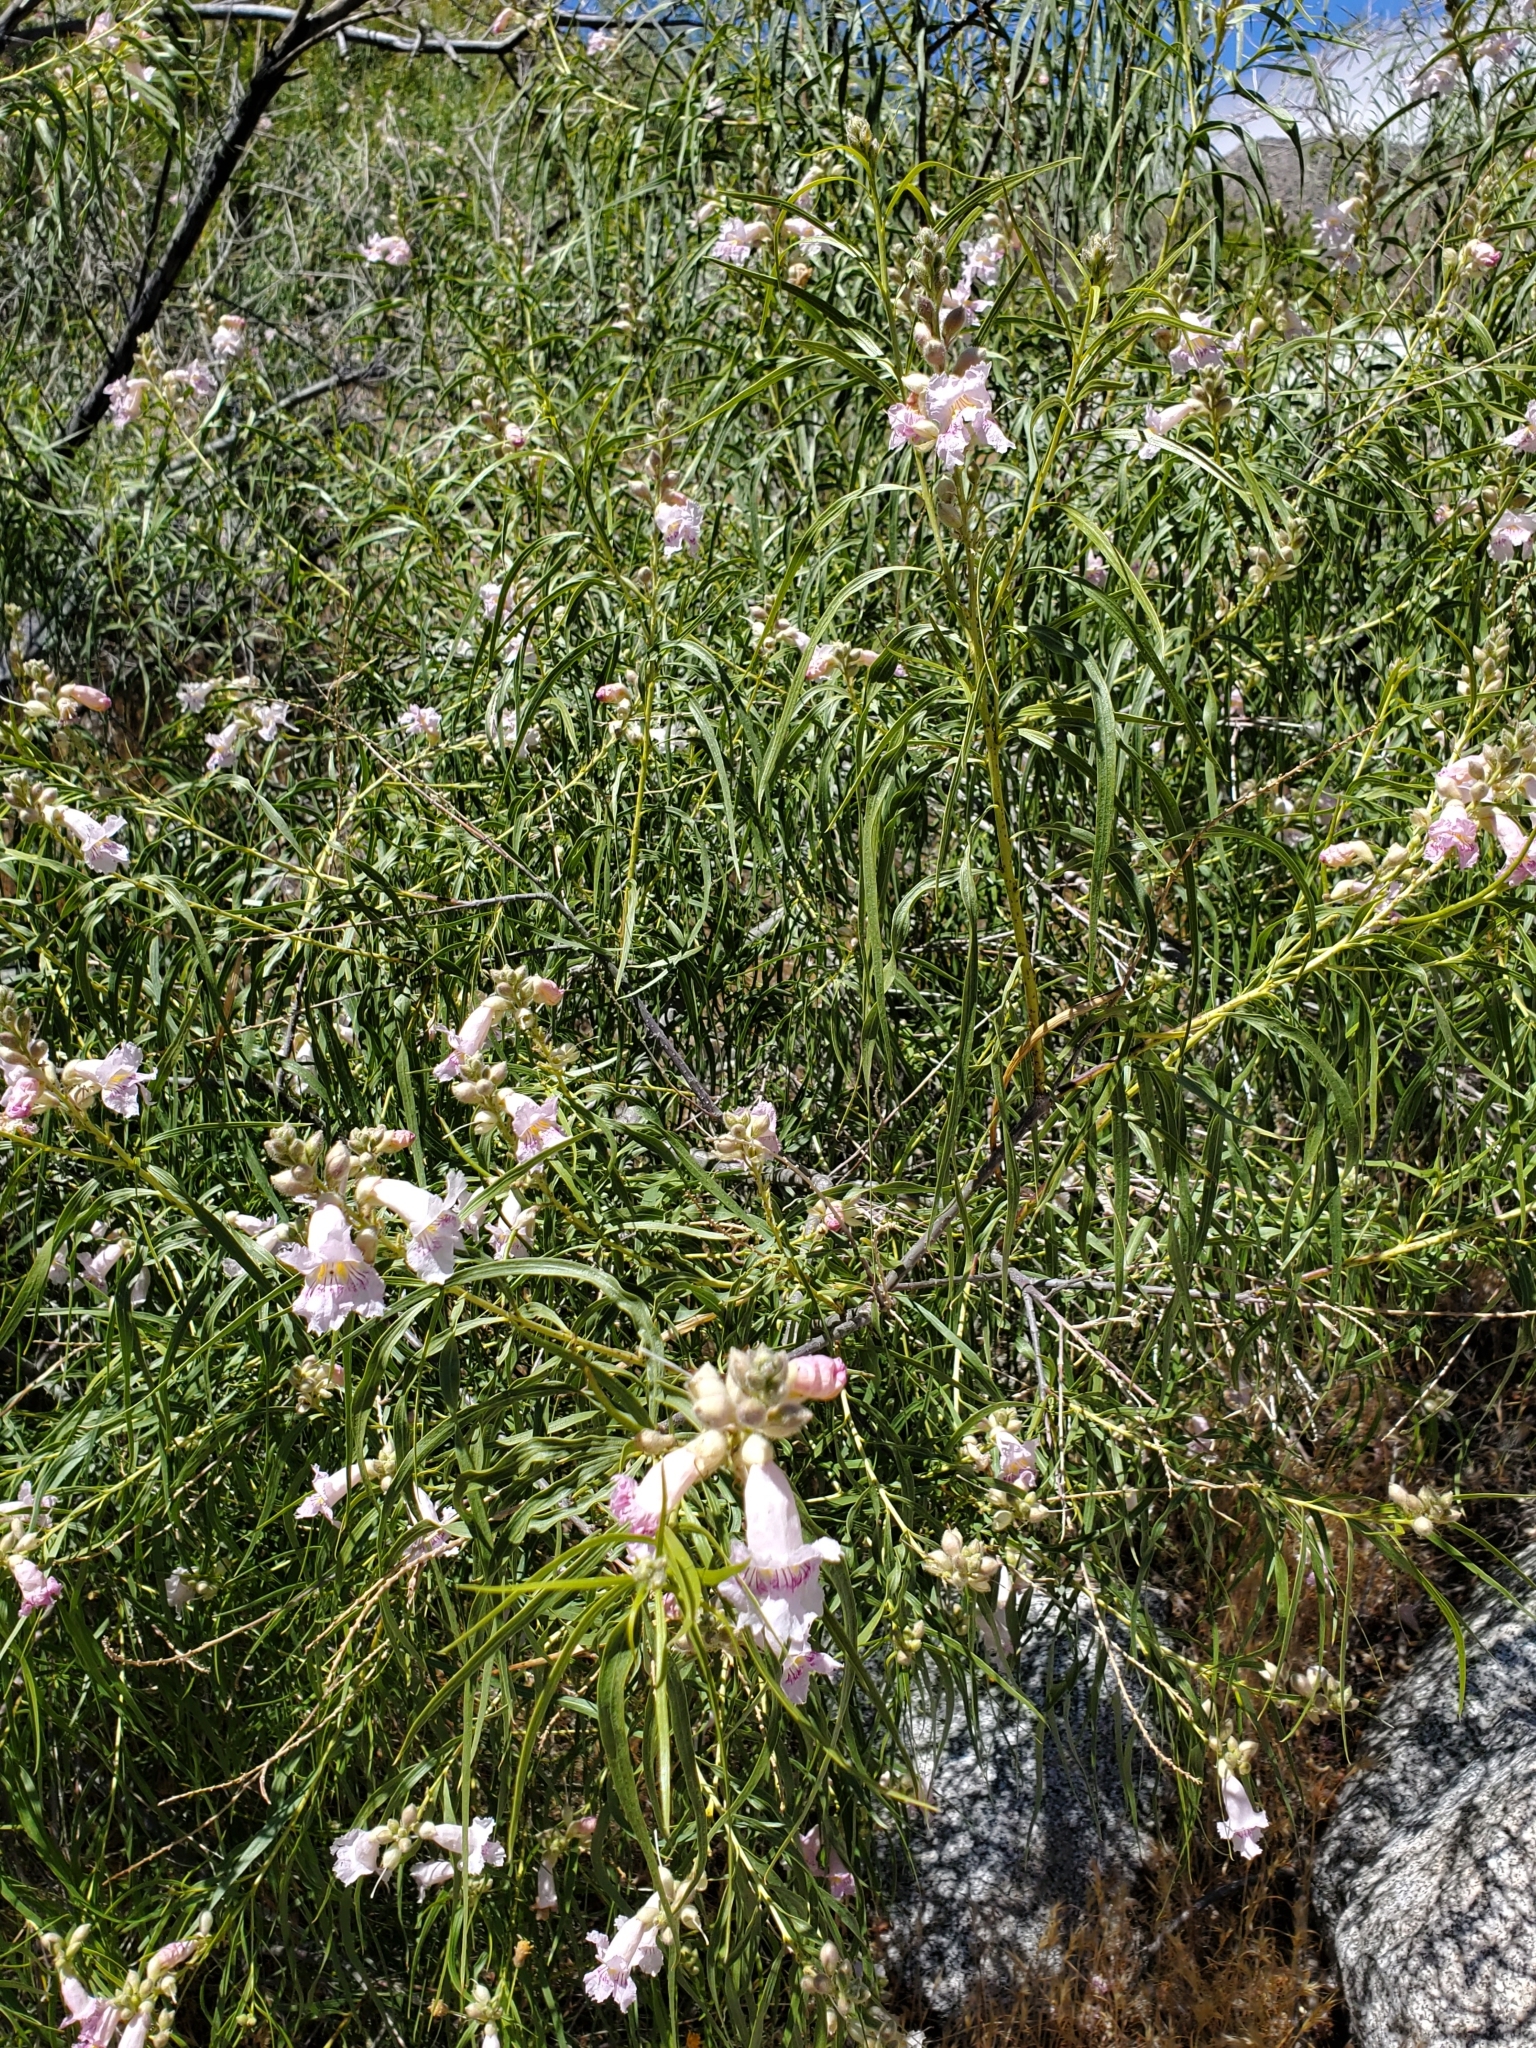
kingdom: Plantae
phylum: Tracheophyta
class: Magnoliopsida
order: Lamiales
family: Bignoniaceae
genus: Chilopsis
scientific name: Chilopsis linearis
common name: Desert-willow
